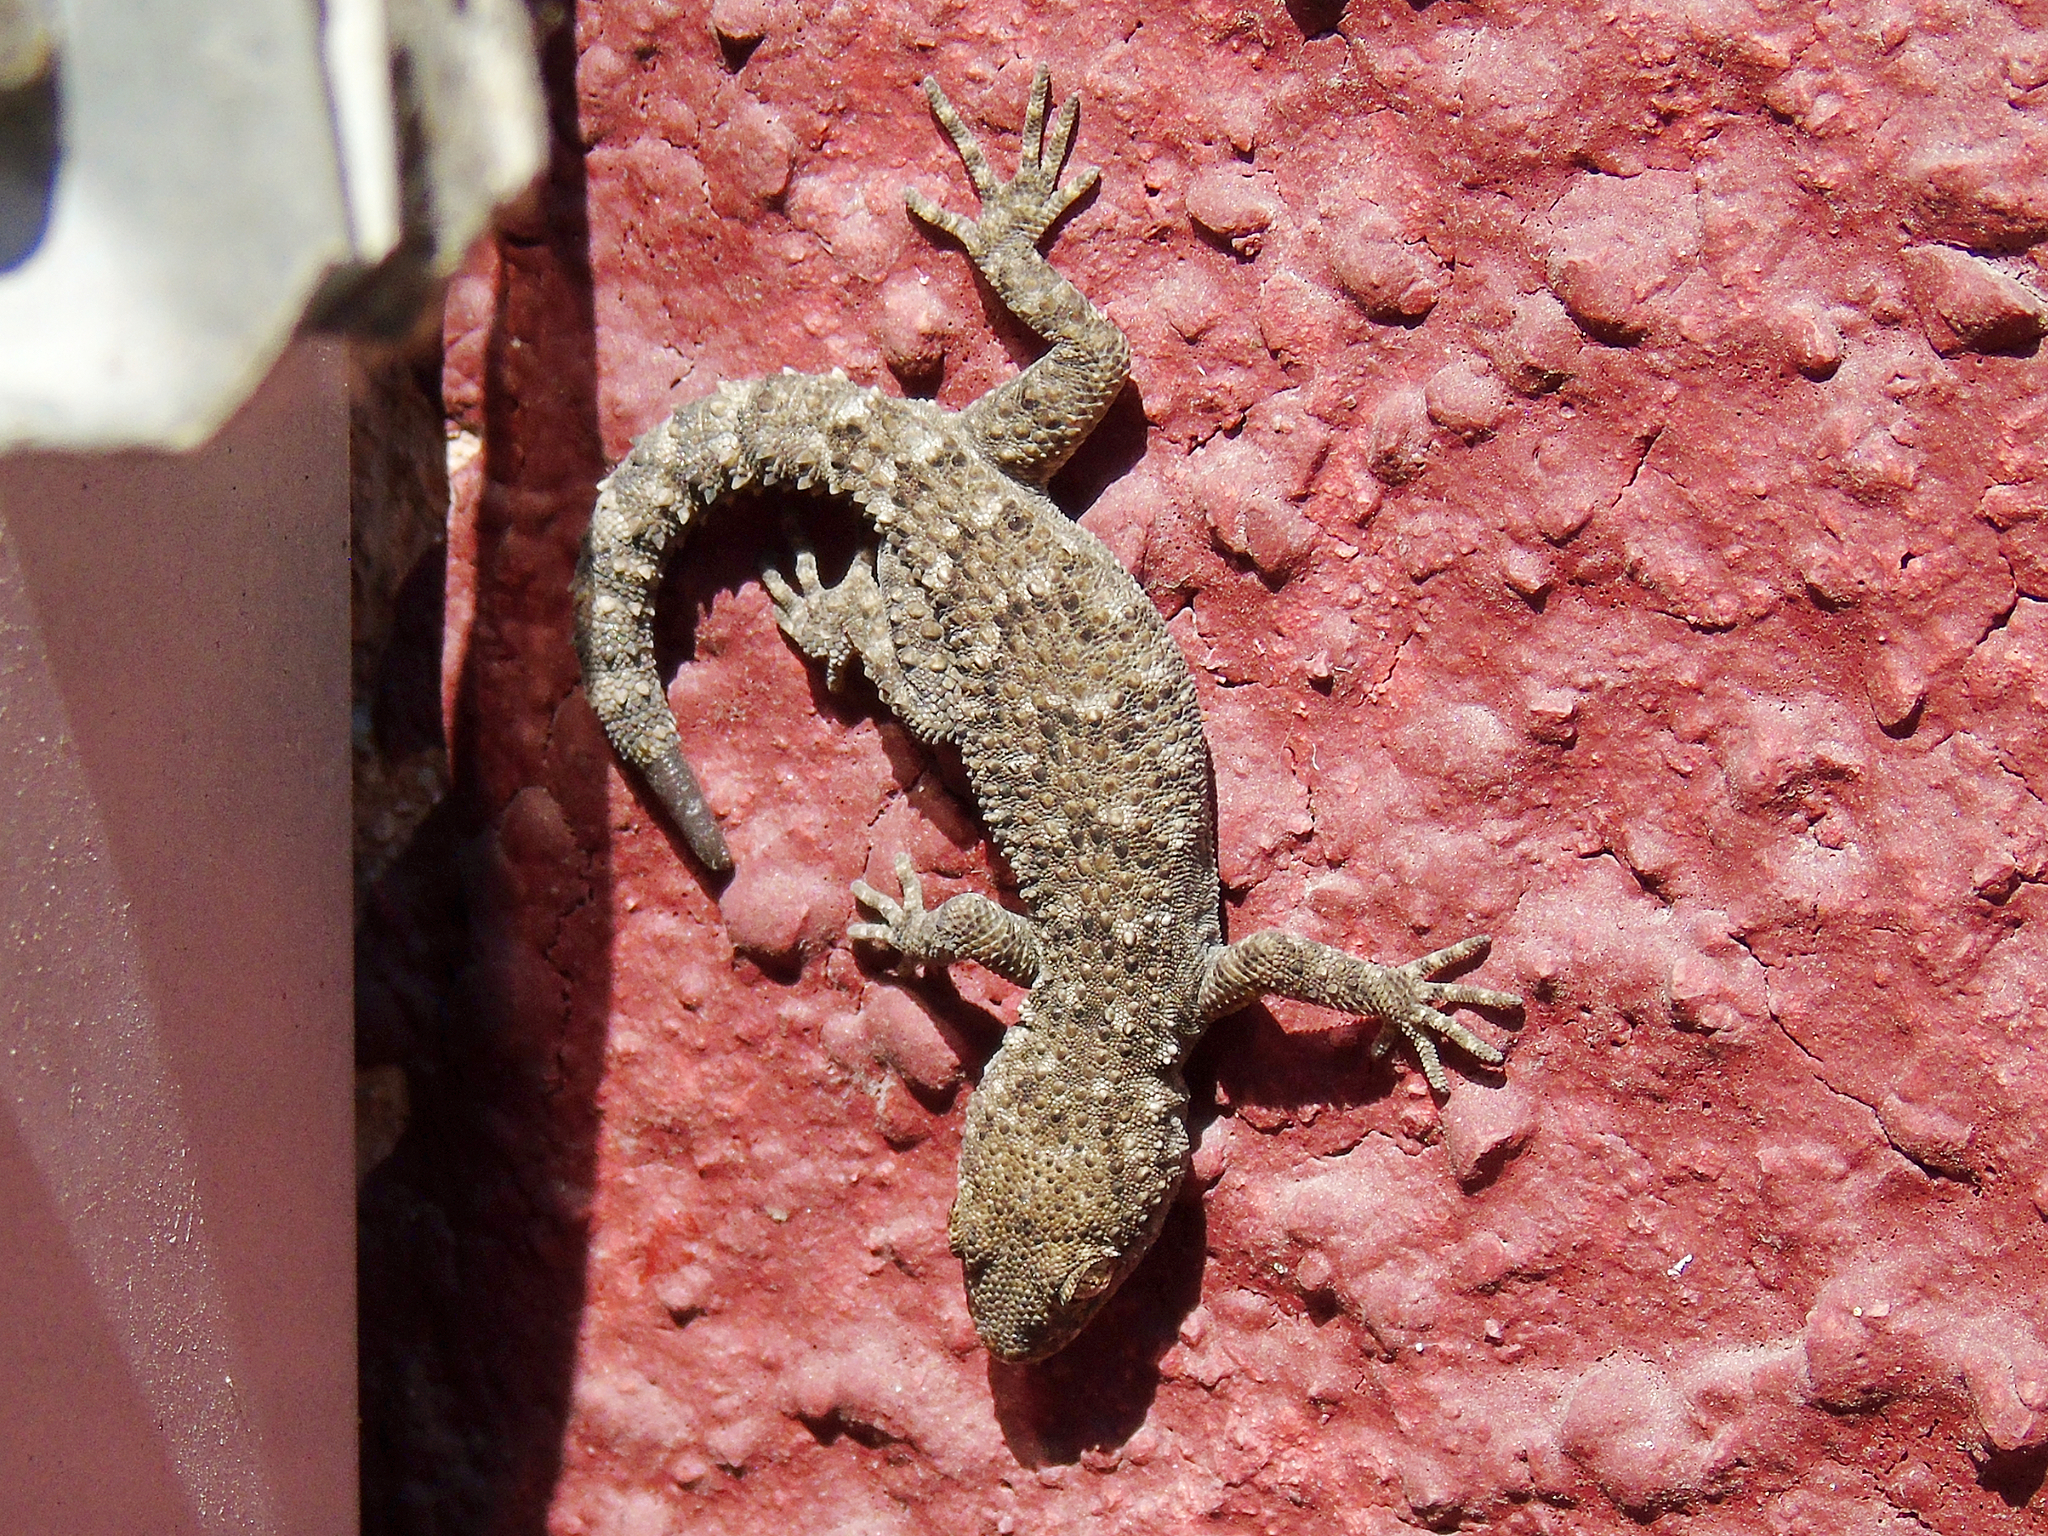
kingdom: Animalia
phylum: Chordata
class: Squamata
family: Gekkonidae
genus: Mediodactylus
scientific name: Mediodactylus kotschyi
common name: Kotschy's gecko
